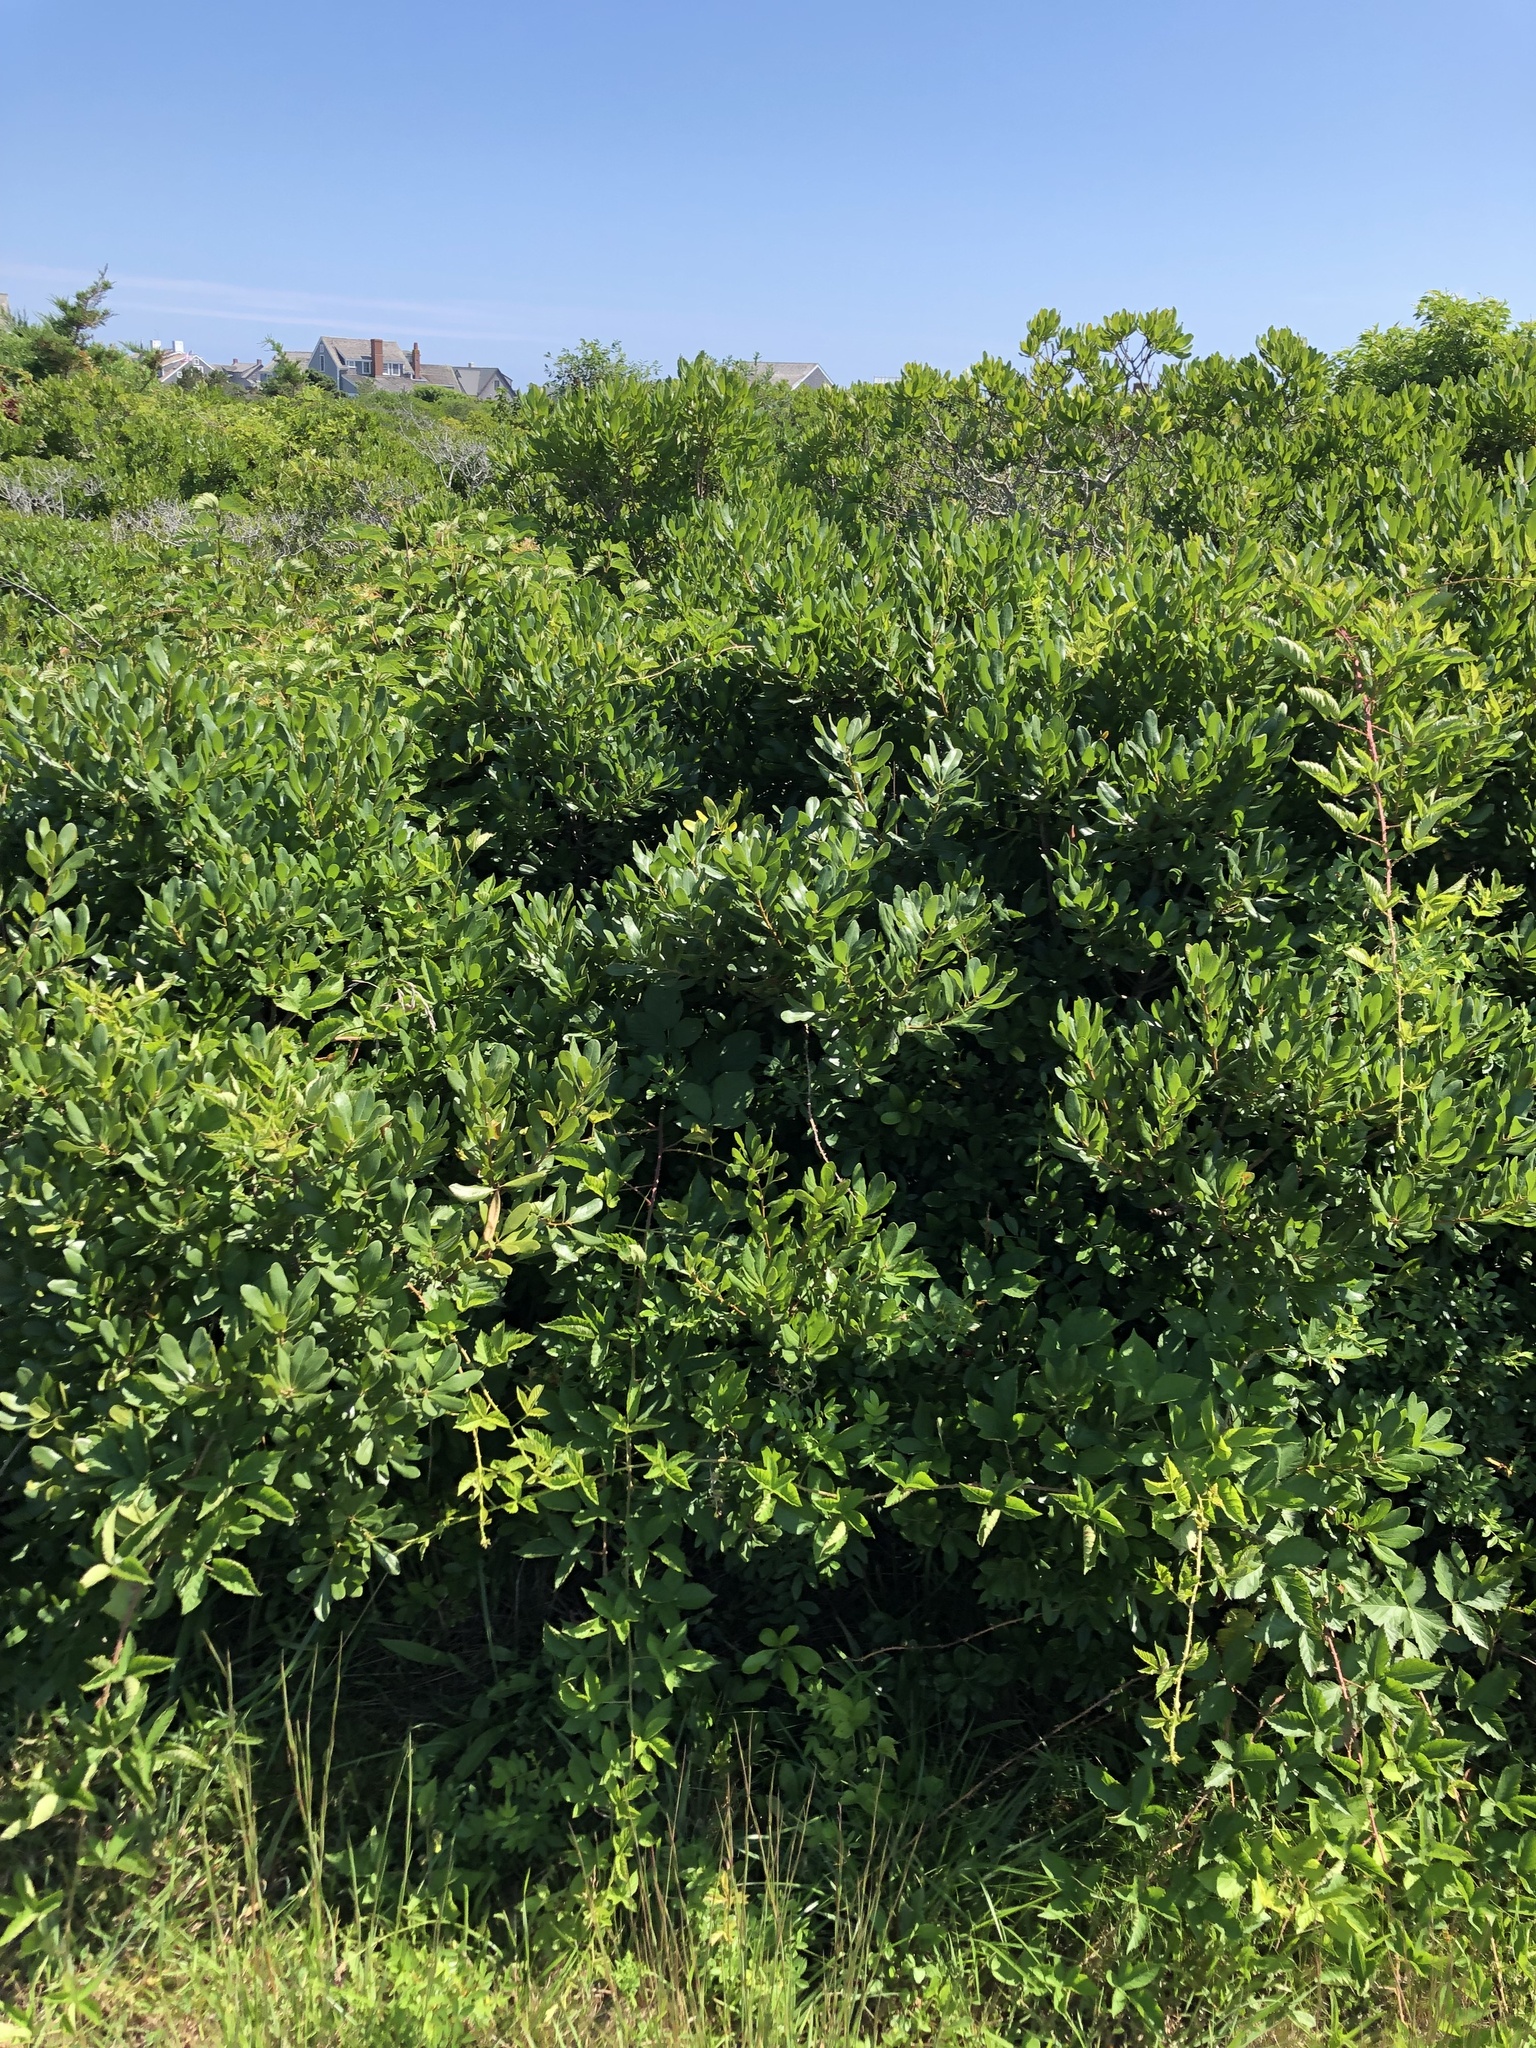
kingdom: Plantae
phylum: Tracheophyta
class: Magnoliopsida
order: Fagales
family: Myricaceae
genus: Morella
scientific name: Morella pensylvanica
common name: Northern bayberry
